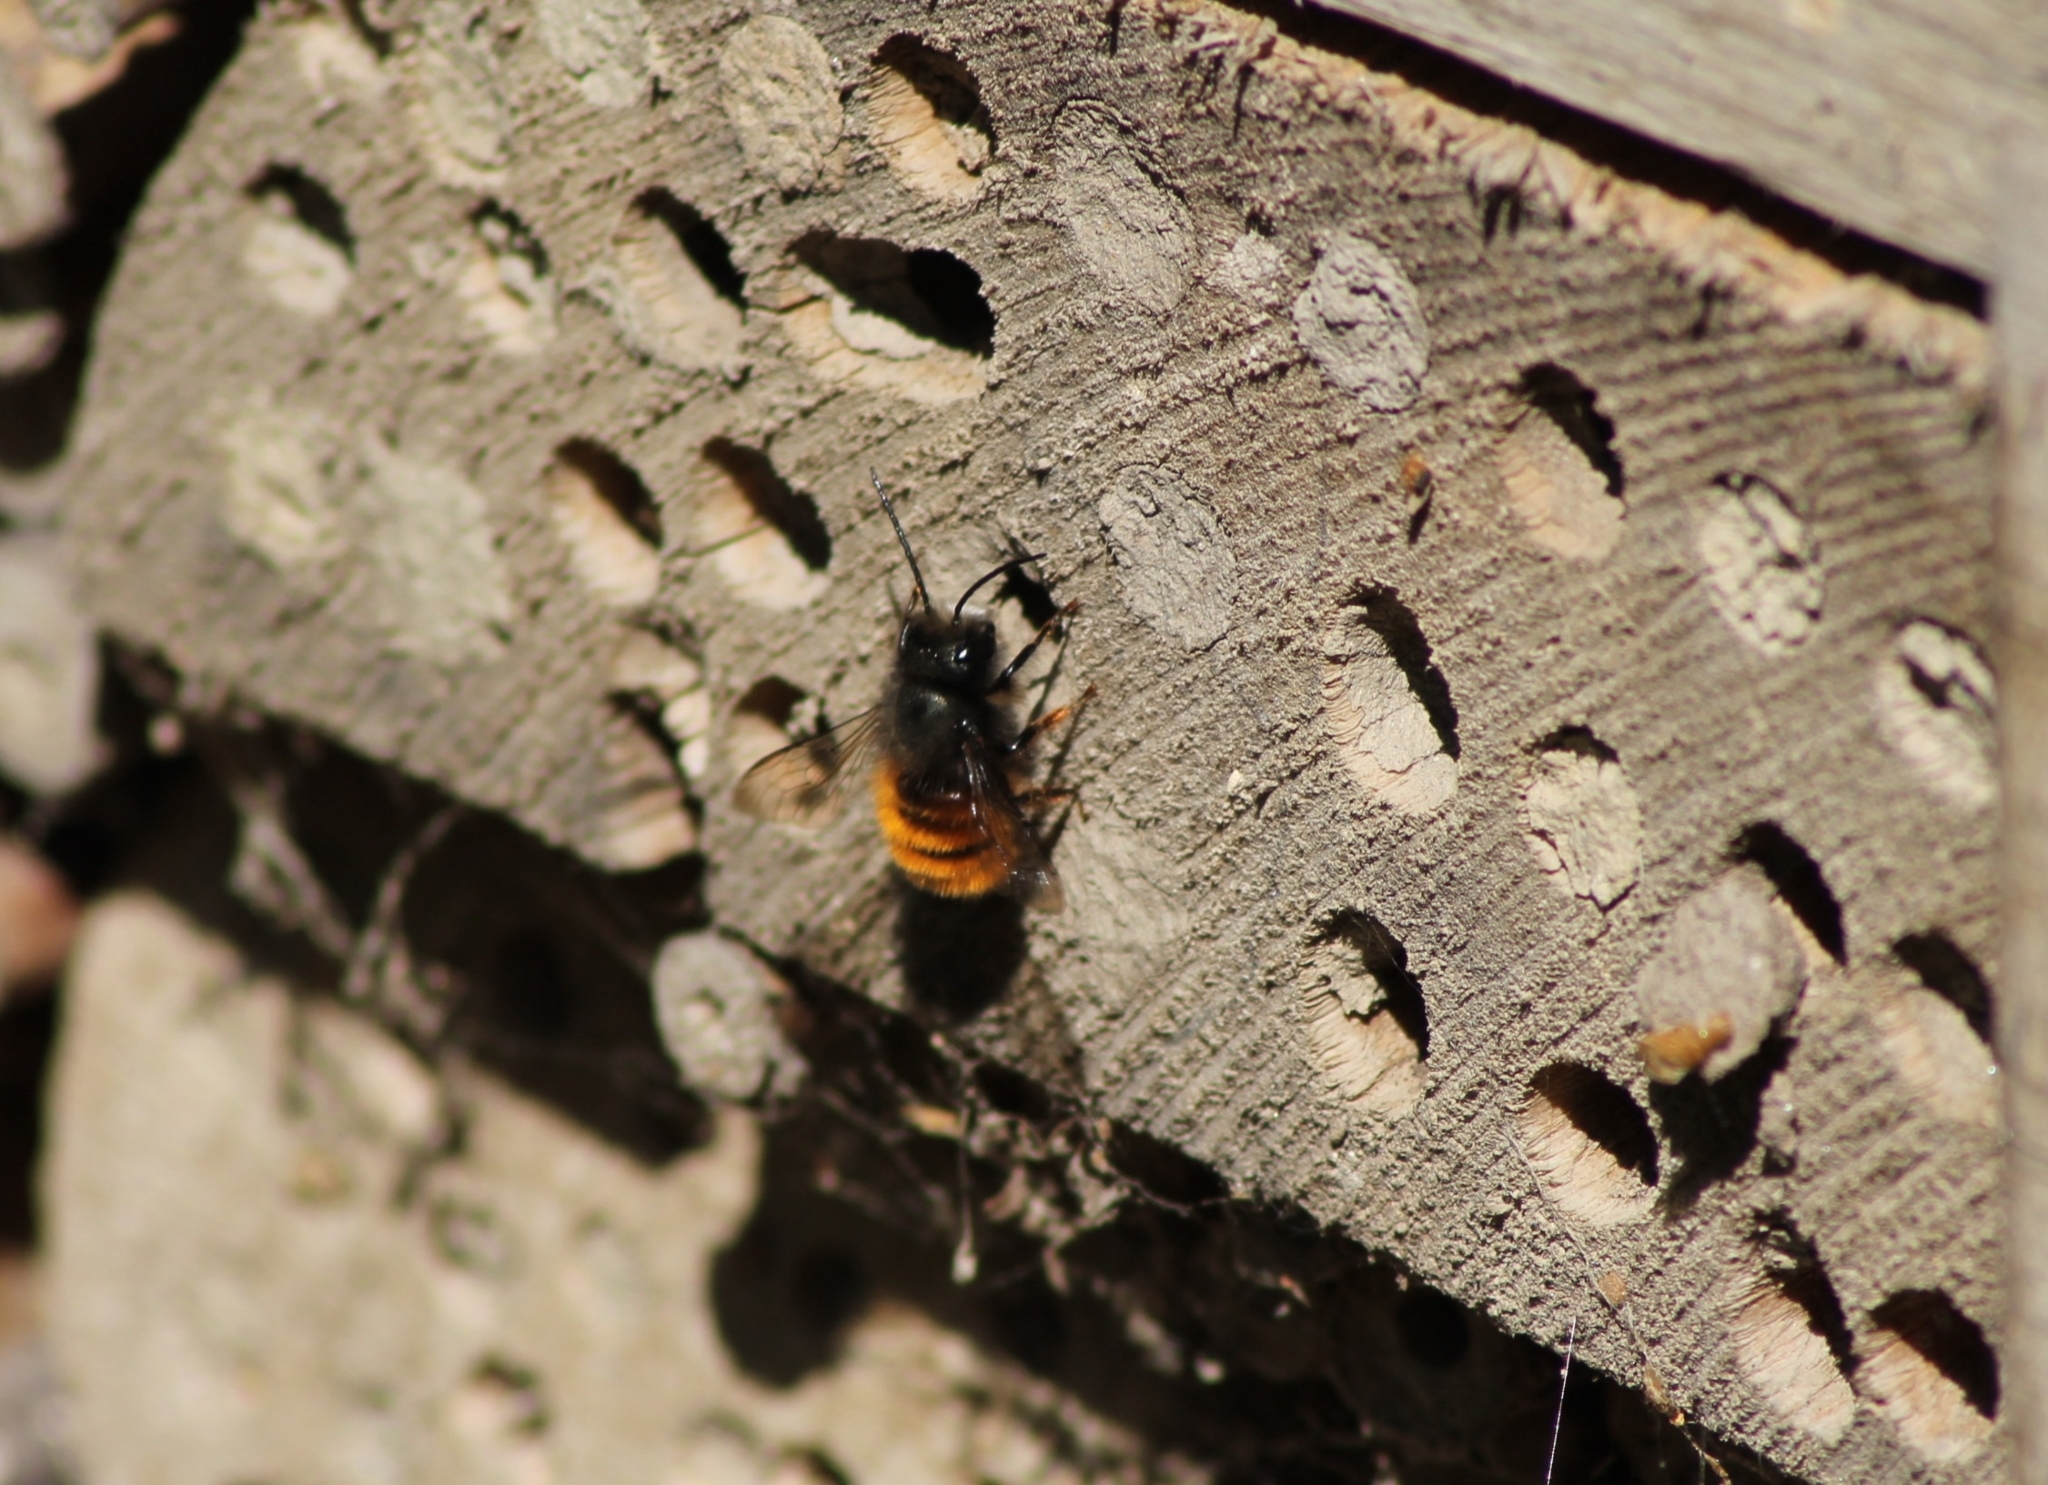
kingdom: Animalia
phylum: Arthropoda
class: Insecta
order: Hymenoptera
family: Megachilidae
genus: Osmia
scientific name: Osmia cornuta
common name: Mason bee
